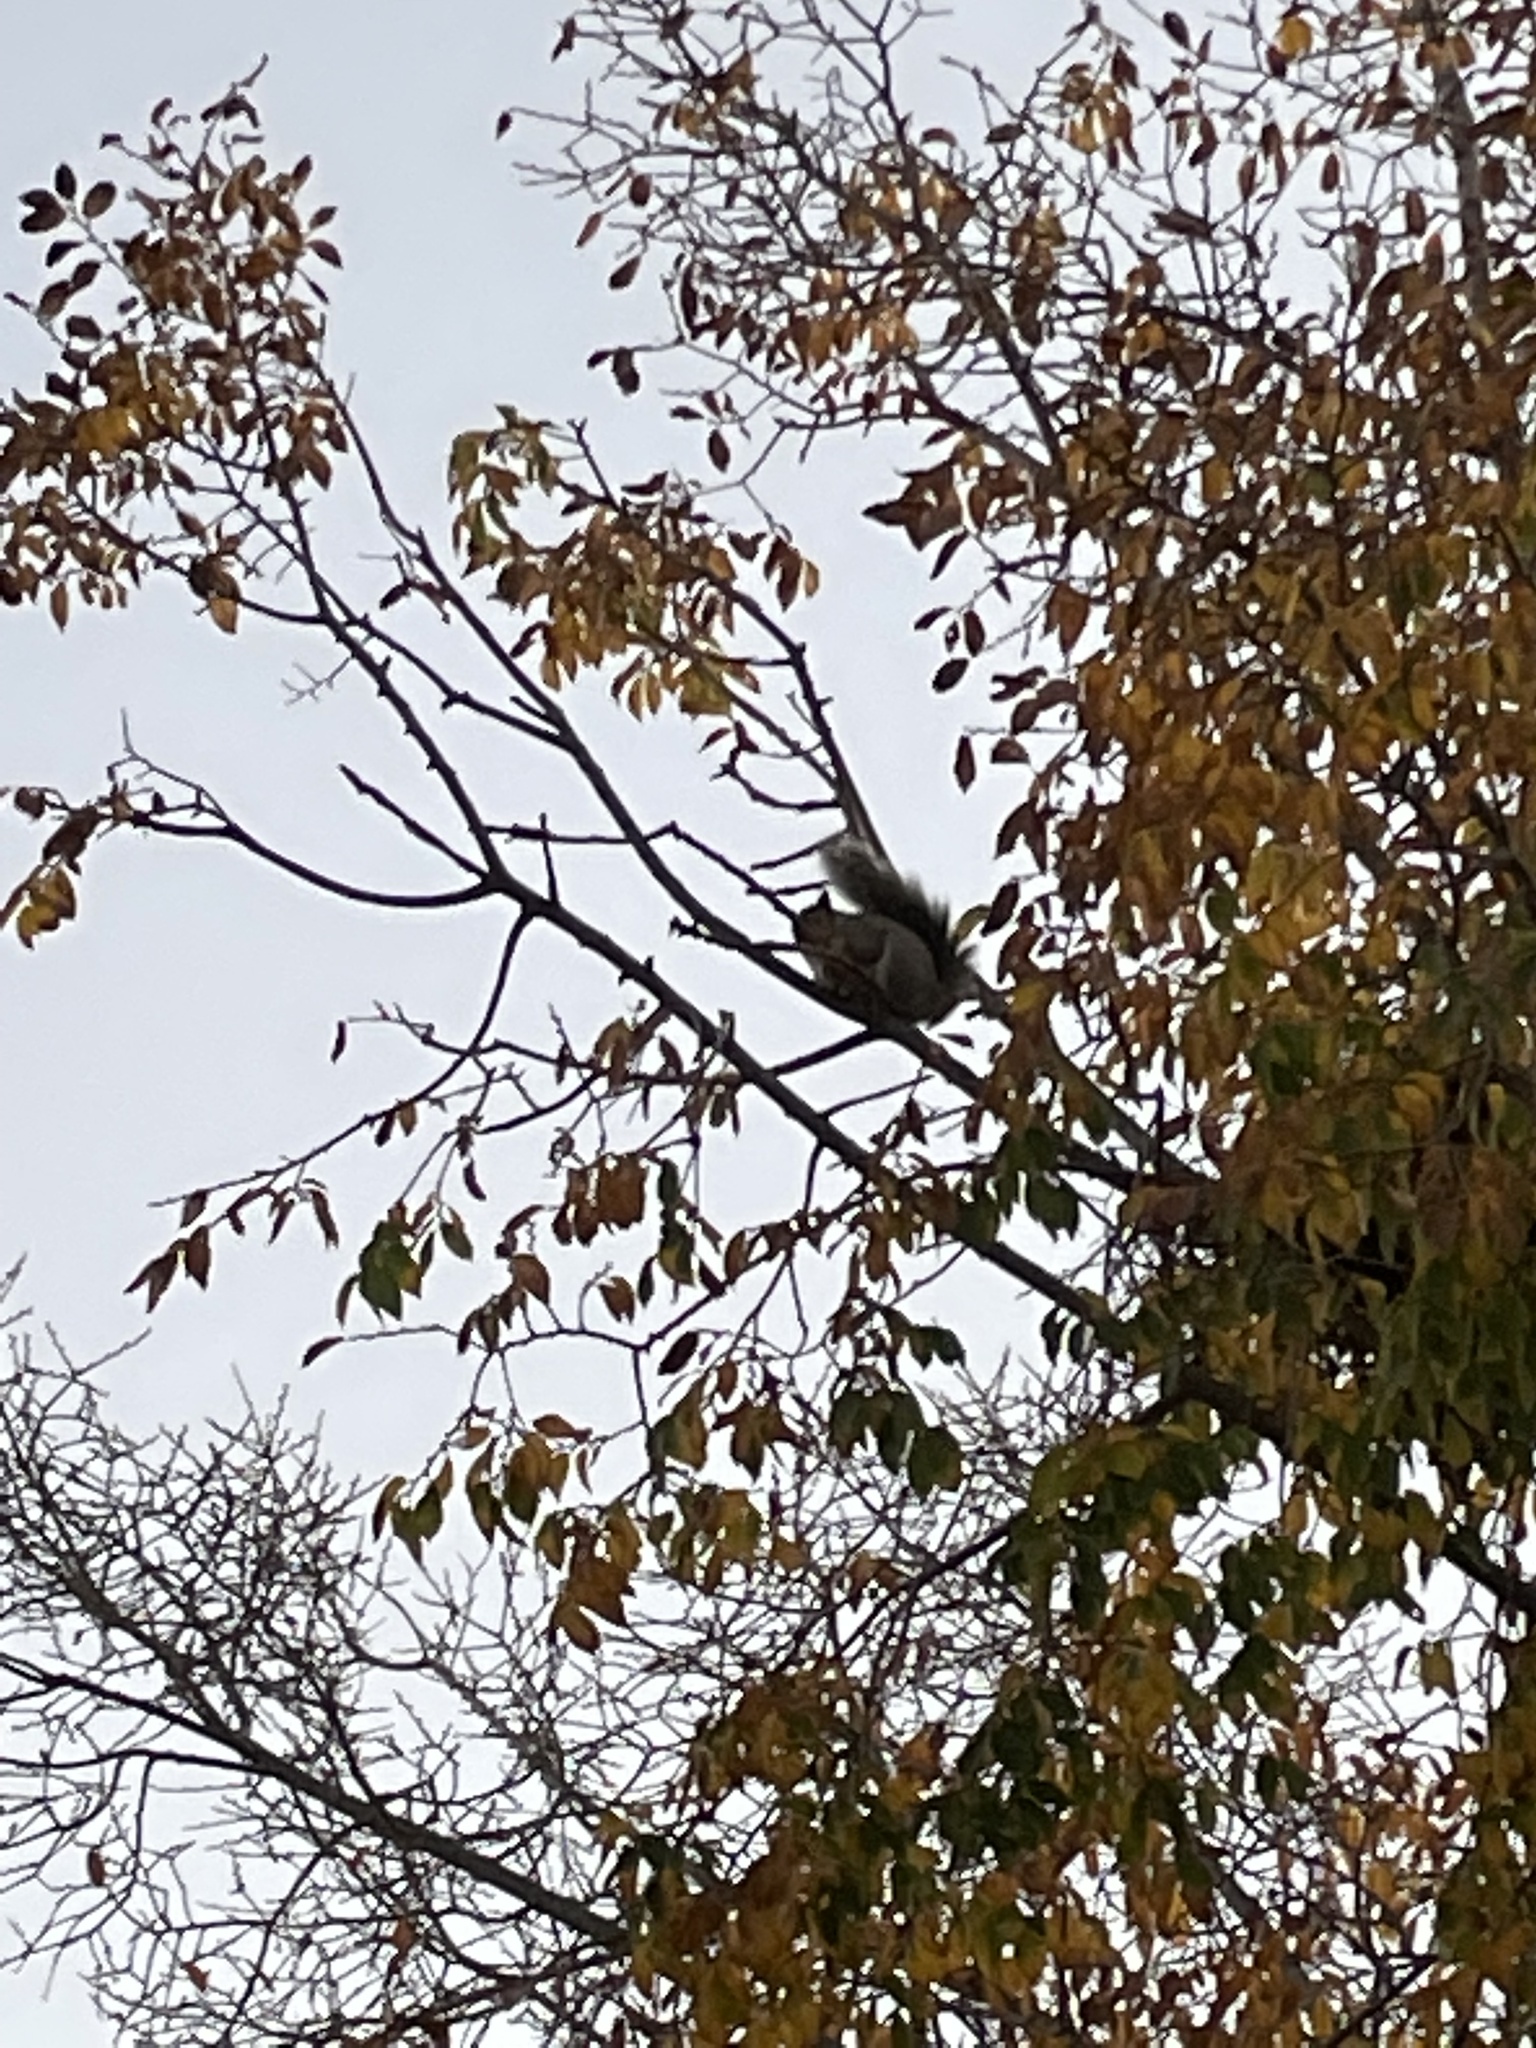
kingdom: Animalia
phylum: Chordata
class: Mammalia
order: Rodentia
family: Sciuridae
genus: Sciurus
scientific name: Sciurus carolinensis
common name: Eastern gray squirrel
